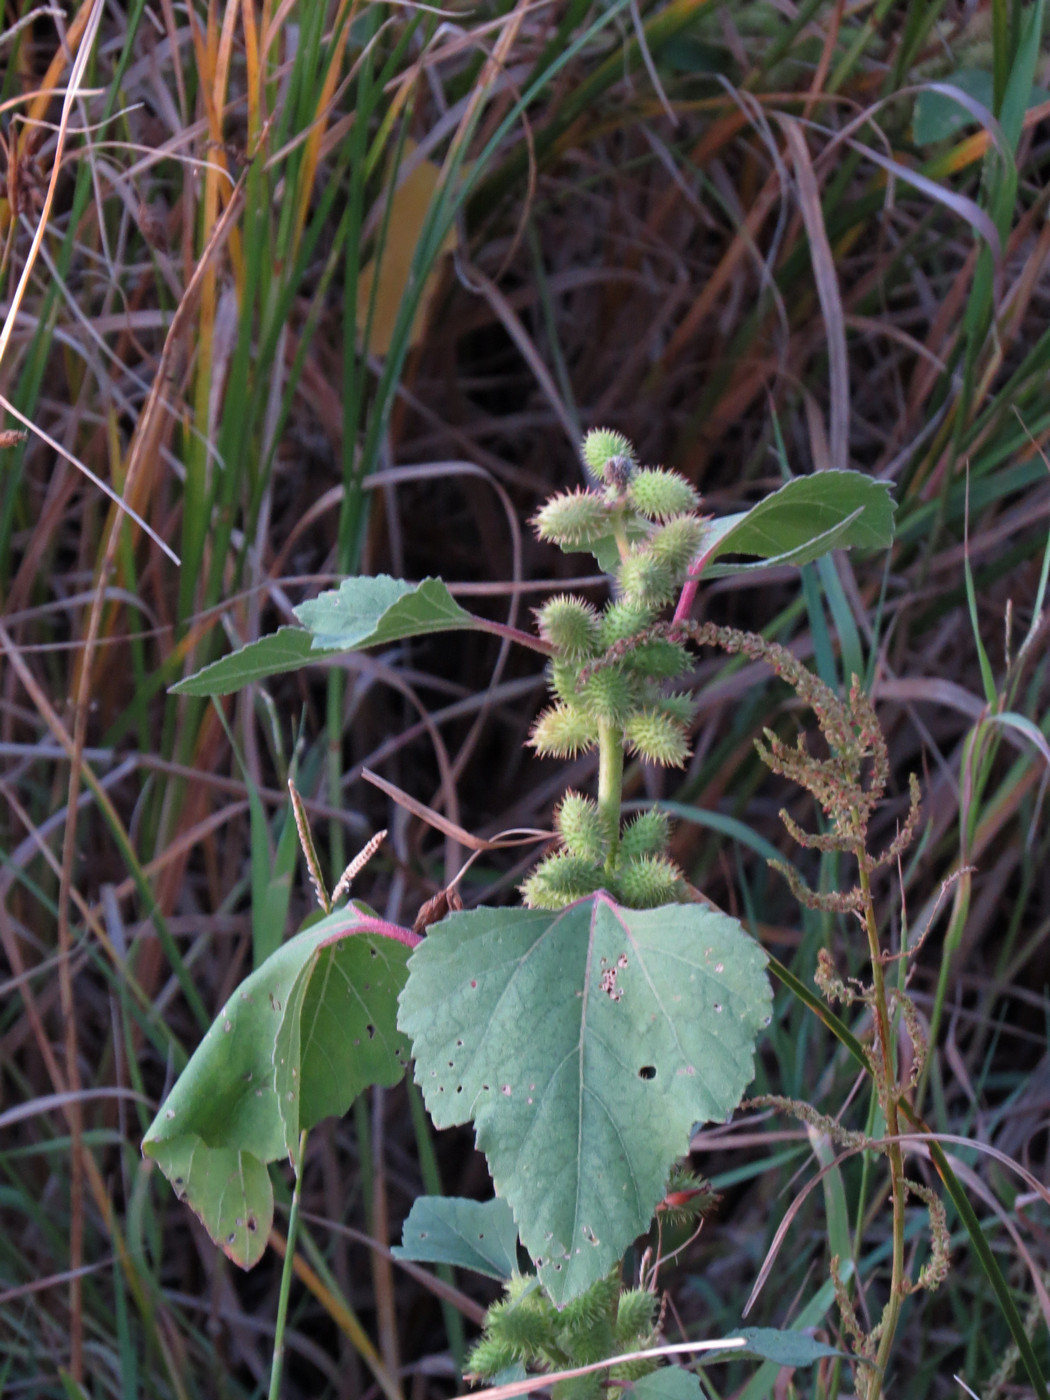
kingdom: Plantae
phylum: Tracheophyta
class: Magnoliopsida
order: Asterales
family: Asteraceae
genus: Xanthium
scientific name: Xanthium strumarium
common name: Rough cocklebur
